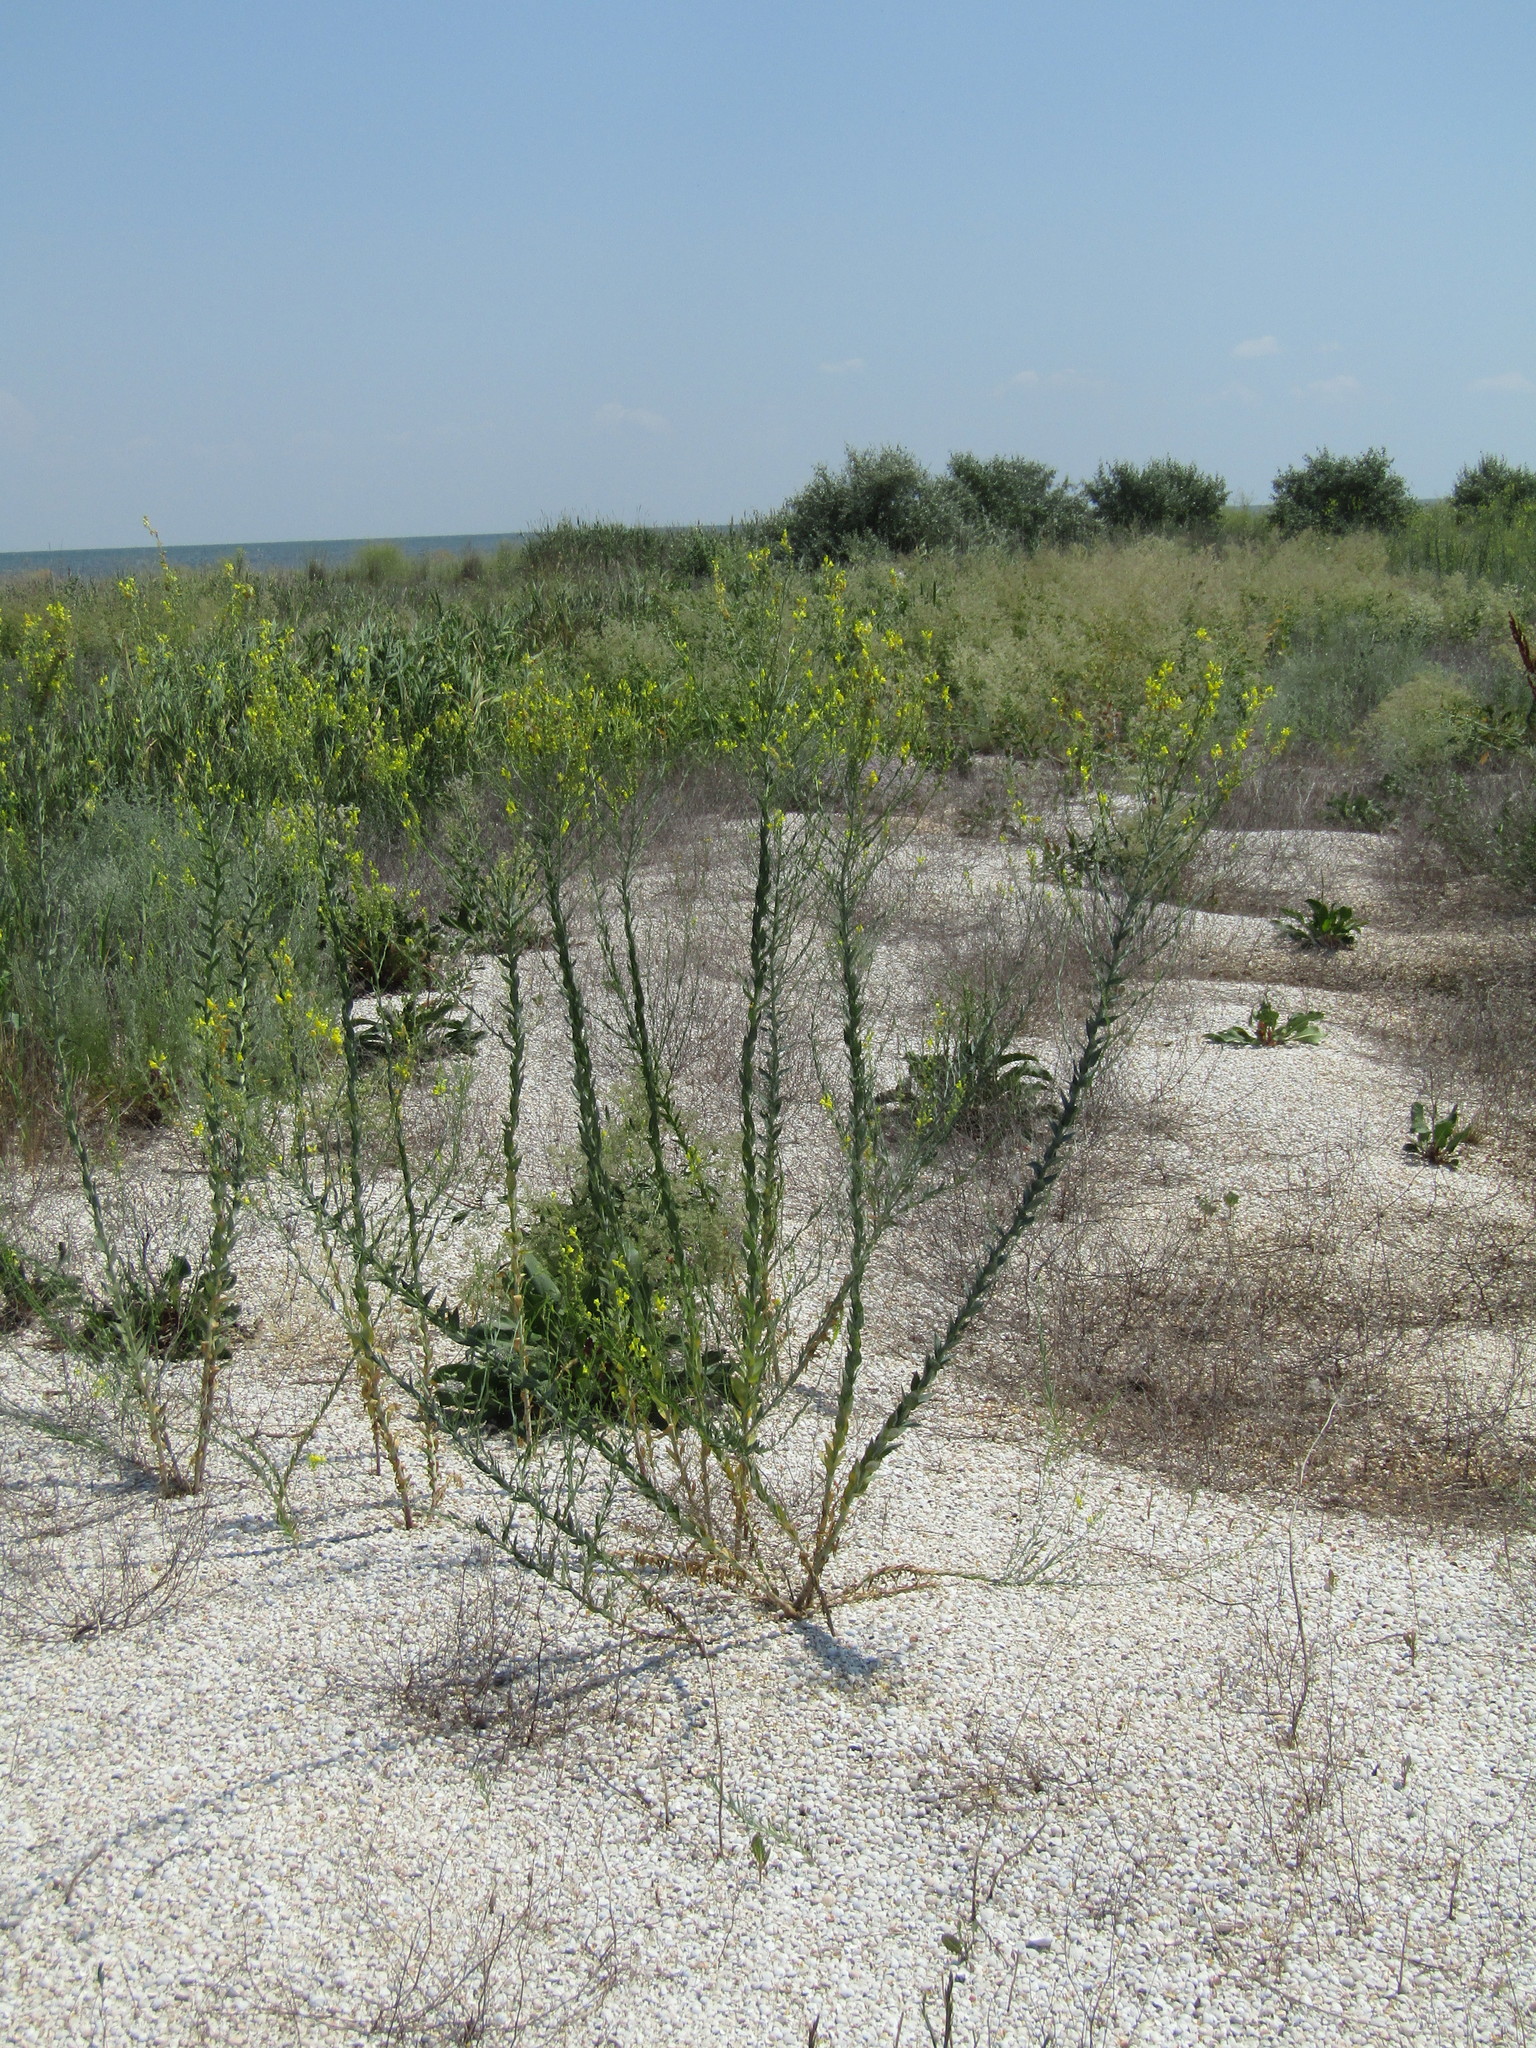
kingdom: Plantae
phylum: Tracheophyta
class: Magnoliopsida
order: Lamiales
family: Plantaginaceae
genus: Linaria
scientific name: Linaria genistifolia
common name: Broomleaf toadflax
